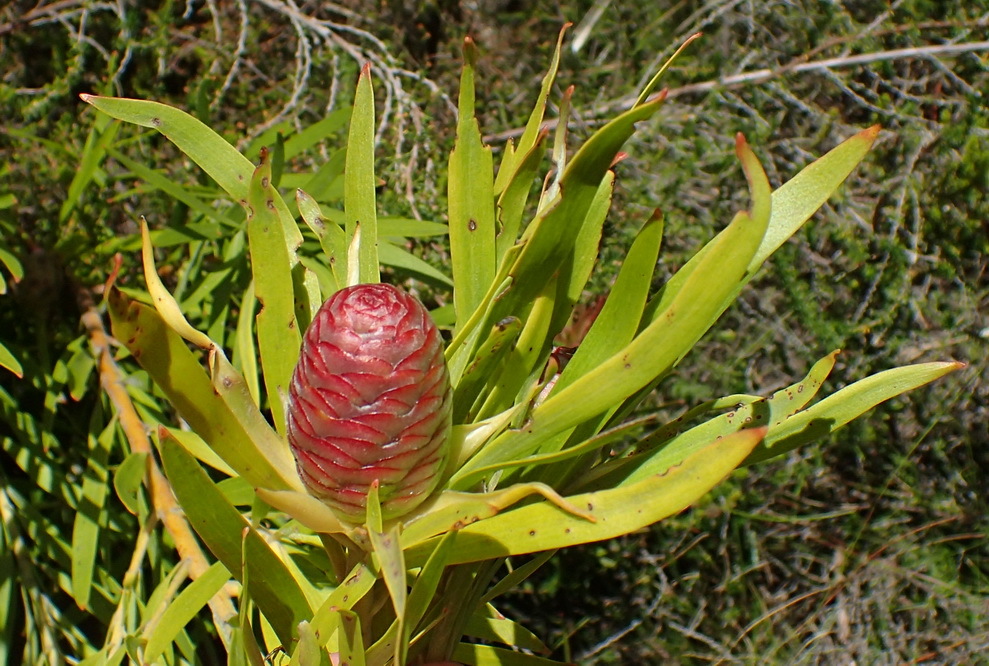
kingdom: Plantae
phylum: Tracheophyta
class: Magnoliopsida
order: Proteales
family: Proteaceae
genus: Leucadendron
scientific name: Leucadendron eucalyptifolium
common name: Gum-leaved conebush
